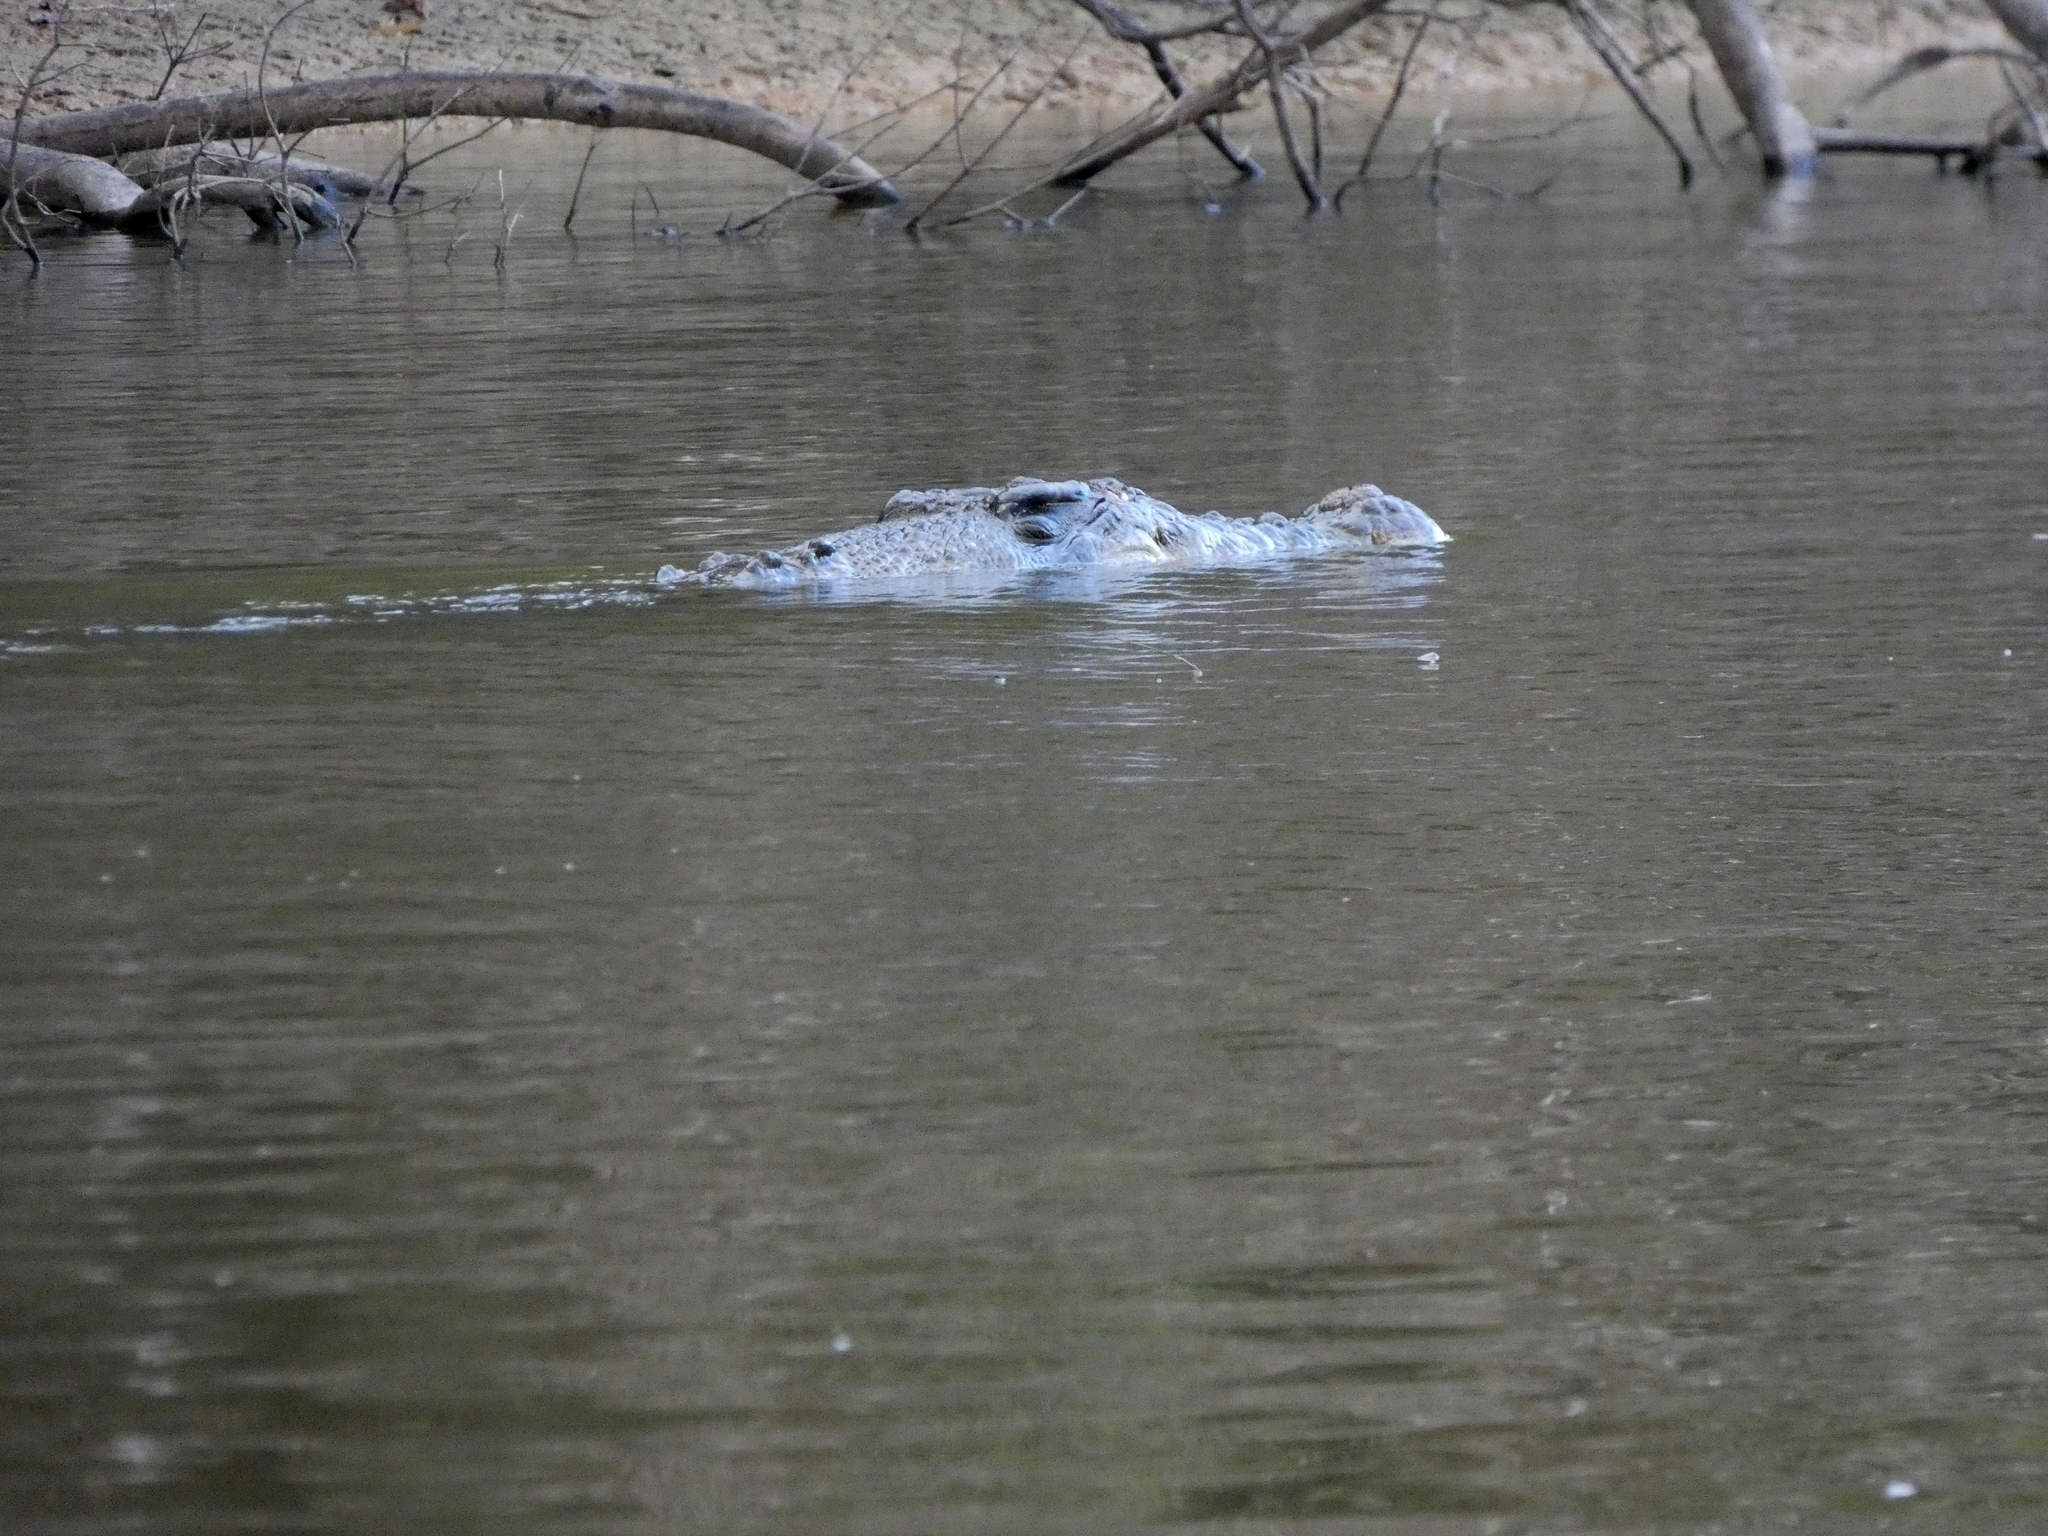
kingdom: Animalia
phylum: Chordata
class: Crocodylia
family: Crocodylidae
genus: Crocodylus
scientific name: Crocodylus porosus
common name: Saltwater crocodile
